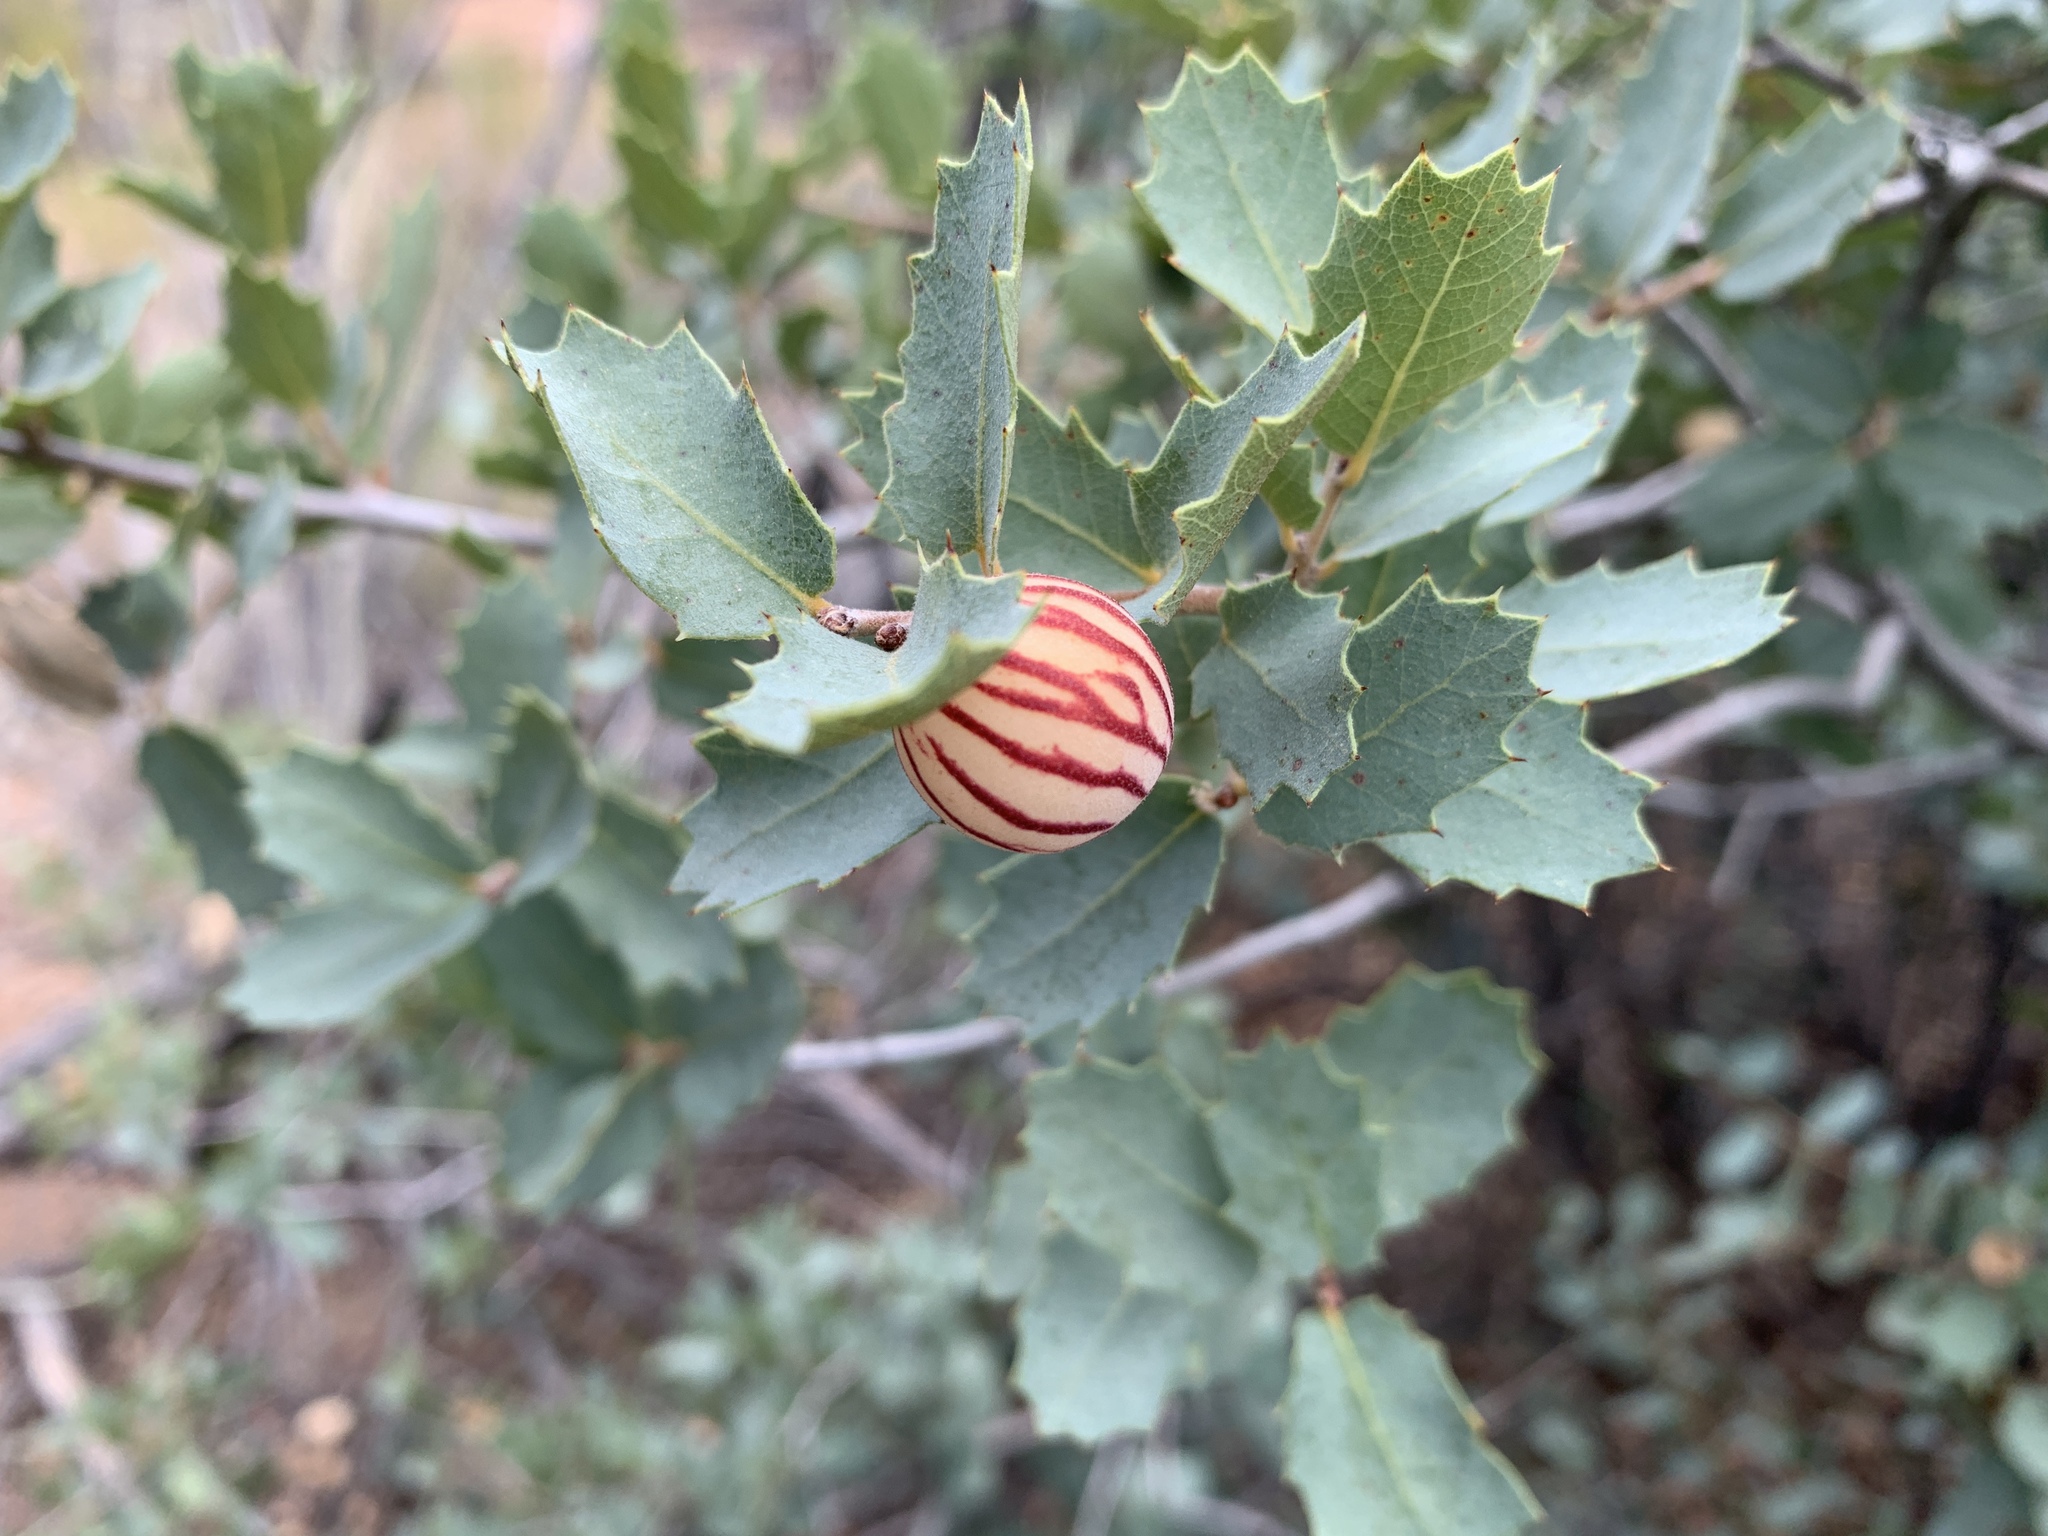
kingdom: Plantae
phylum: Tracheophyta
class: Magnoliopsida
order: Fagales
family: Fagaceae
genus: Quercus
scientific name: Quercus turbinella
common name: Sonoran scrub oak
